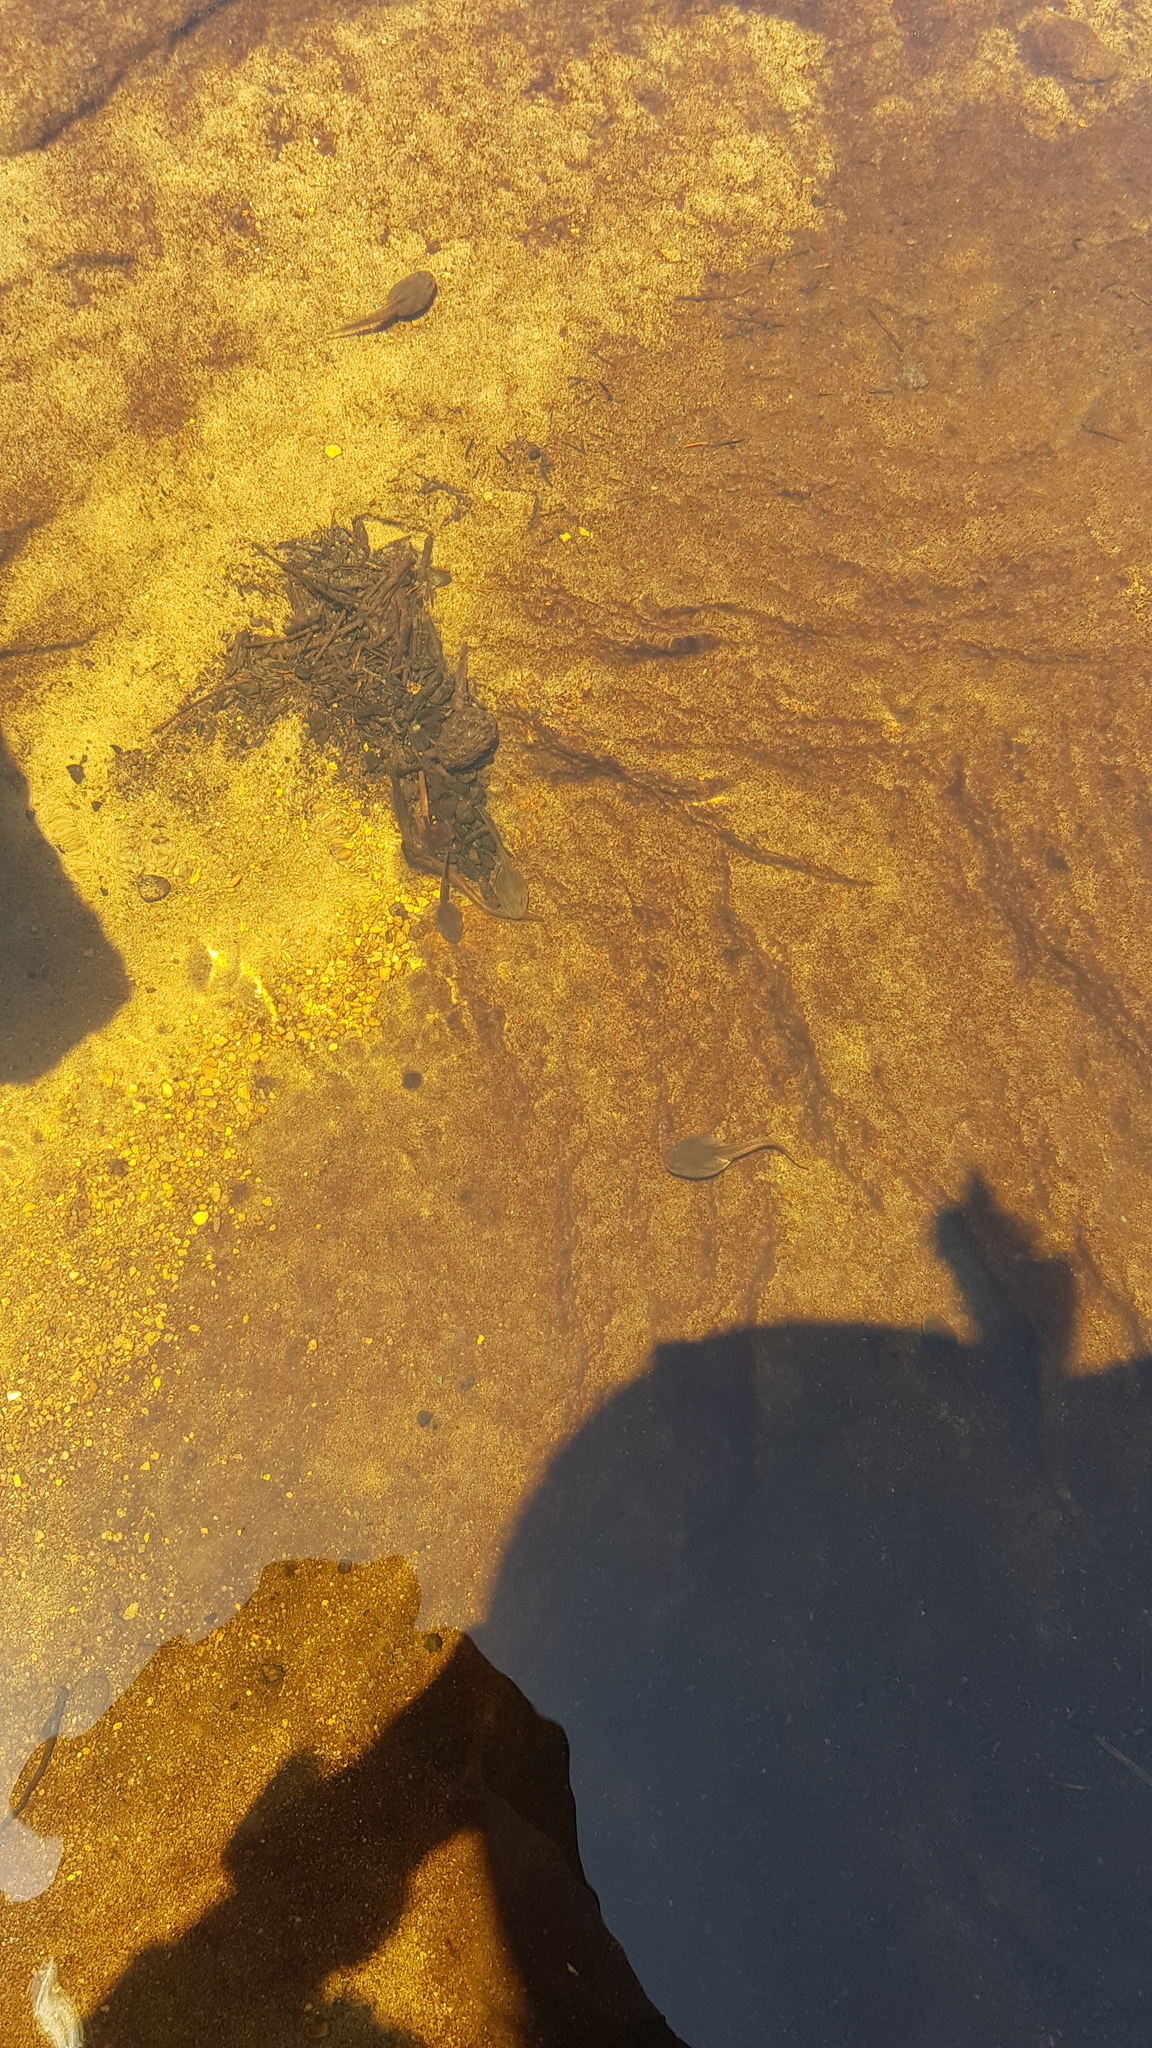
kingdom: Animalia
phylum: Chordata
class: Amphibia
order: Anura
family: Limnodynastidae
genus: Heleioporus
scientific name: Heleioporus australiacus
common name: Eastern owl frog
